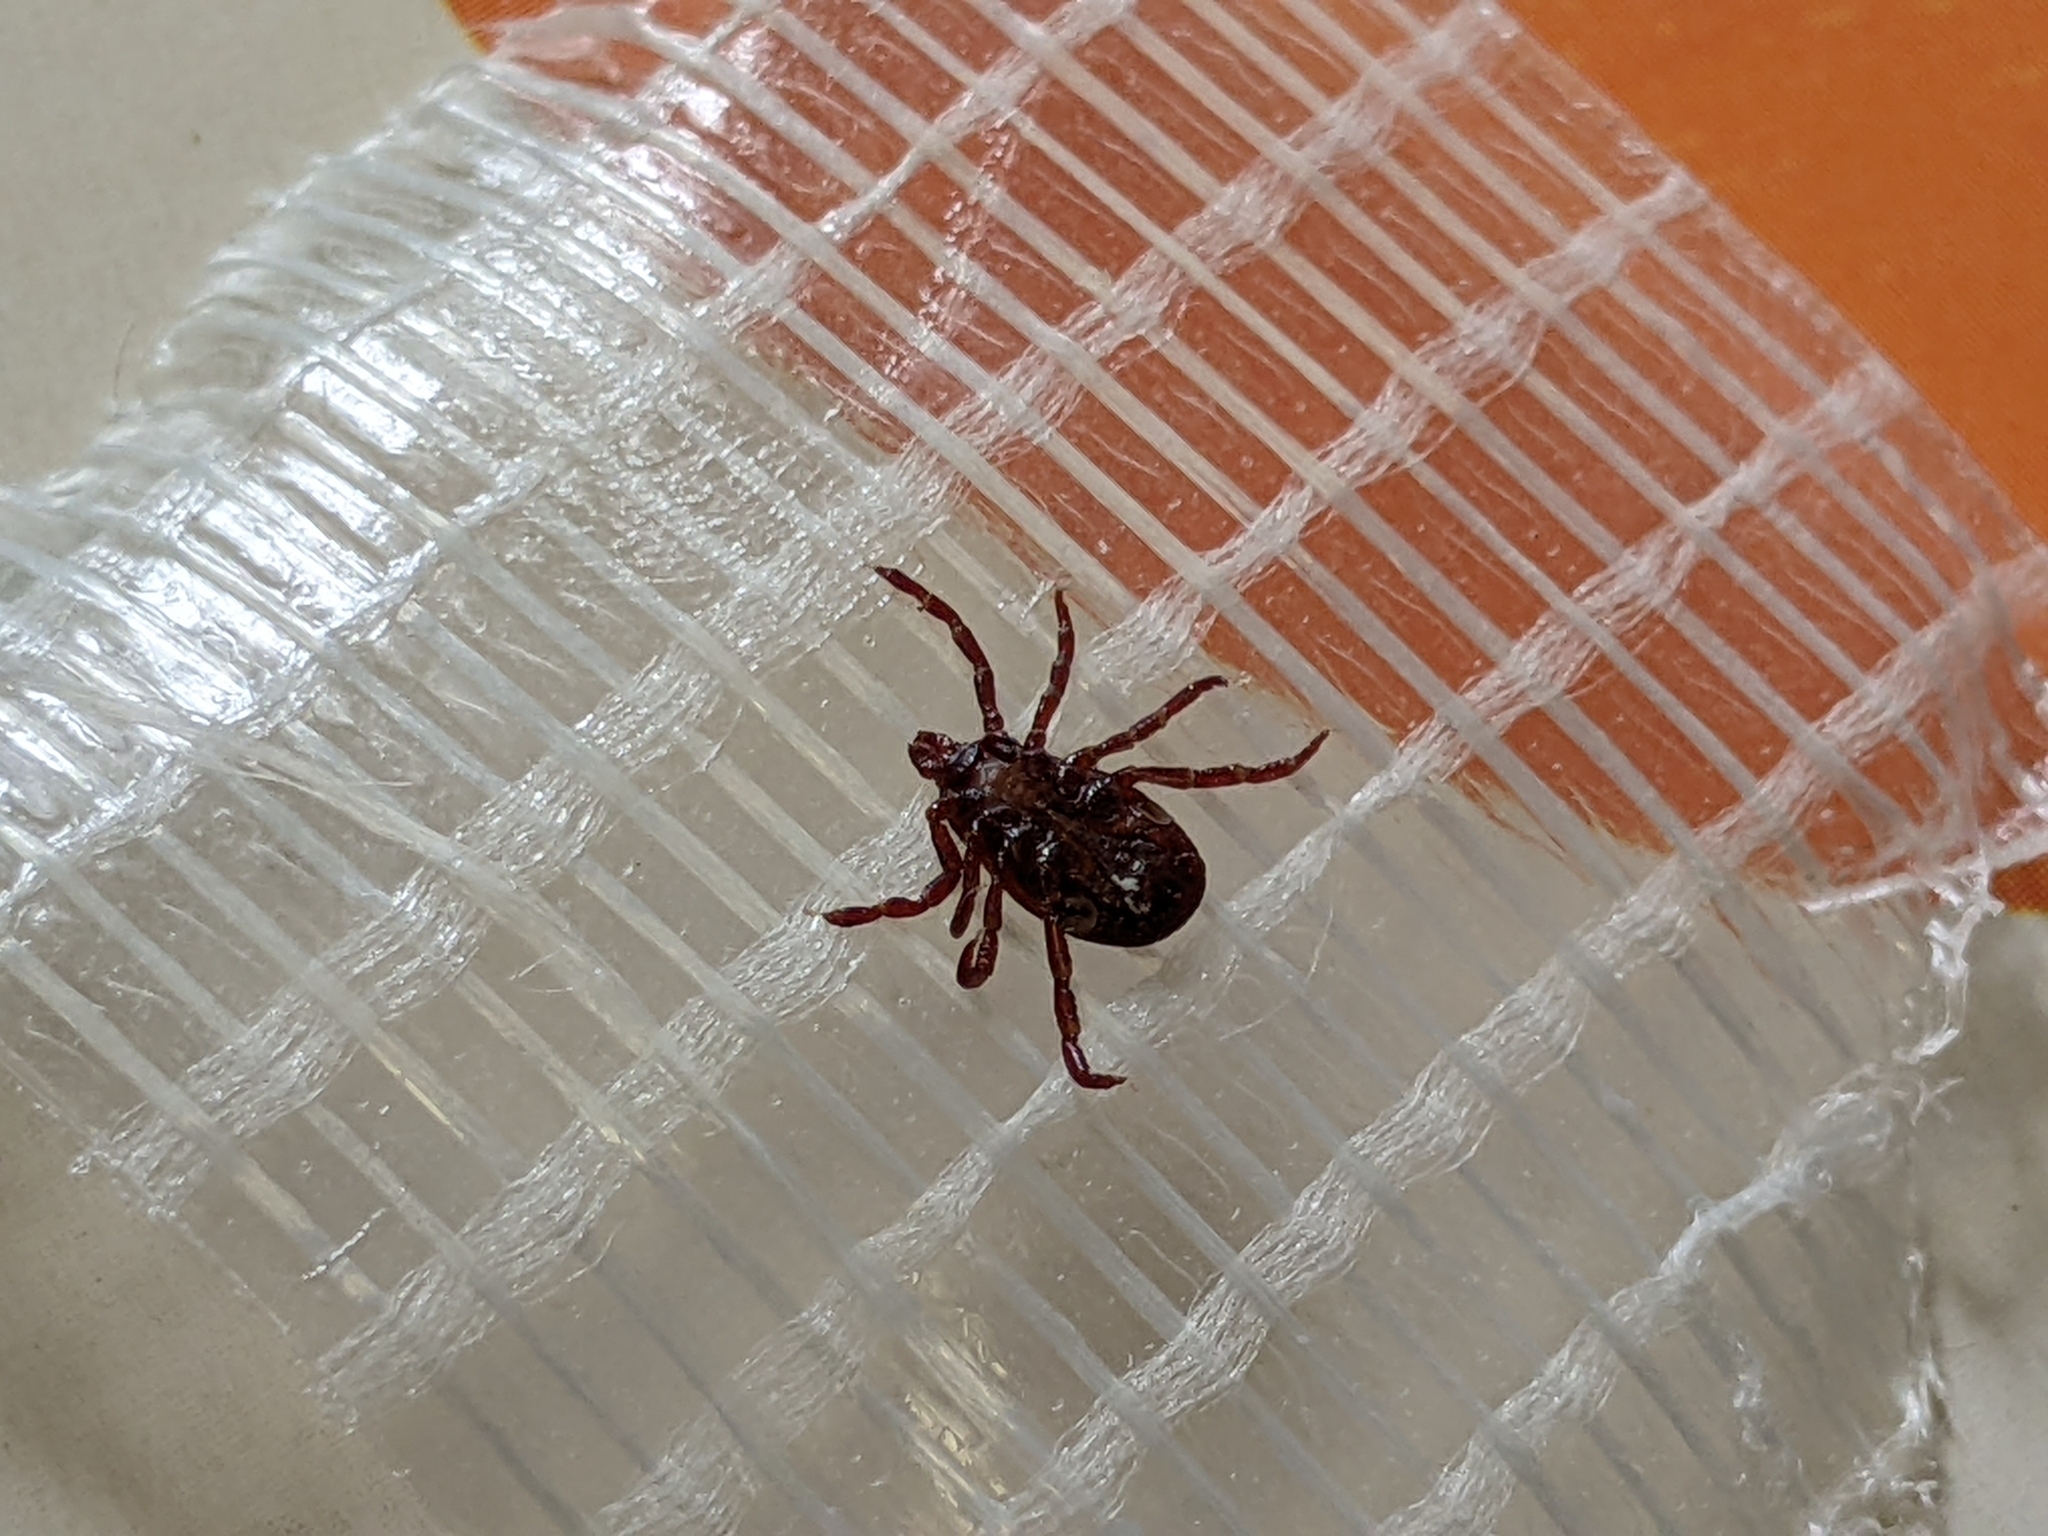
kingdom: Animalia
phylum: Arthropoda
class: Arachnida
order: Ixodida
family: Ixodidae
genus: Dermacentor
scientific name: Dermacentor variabilis
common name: American dog tick
